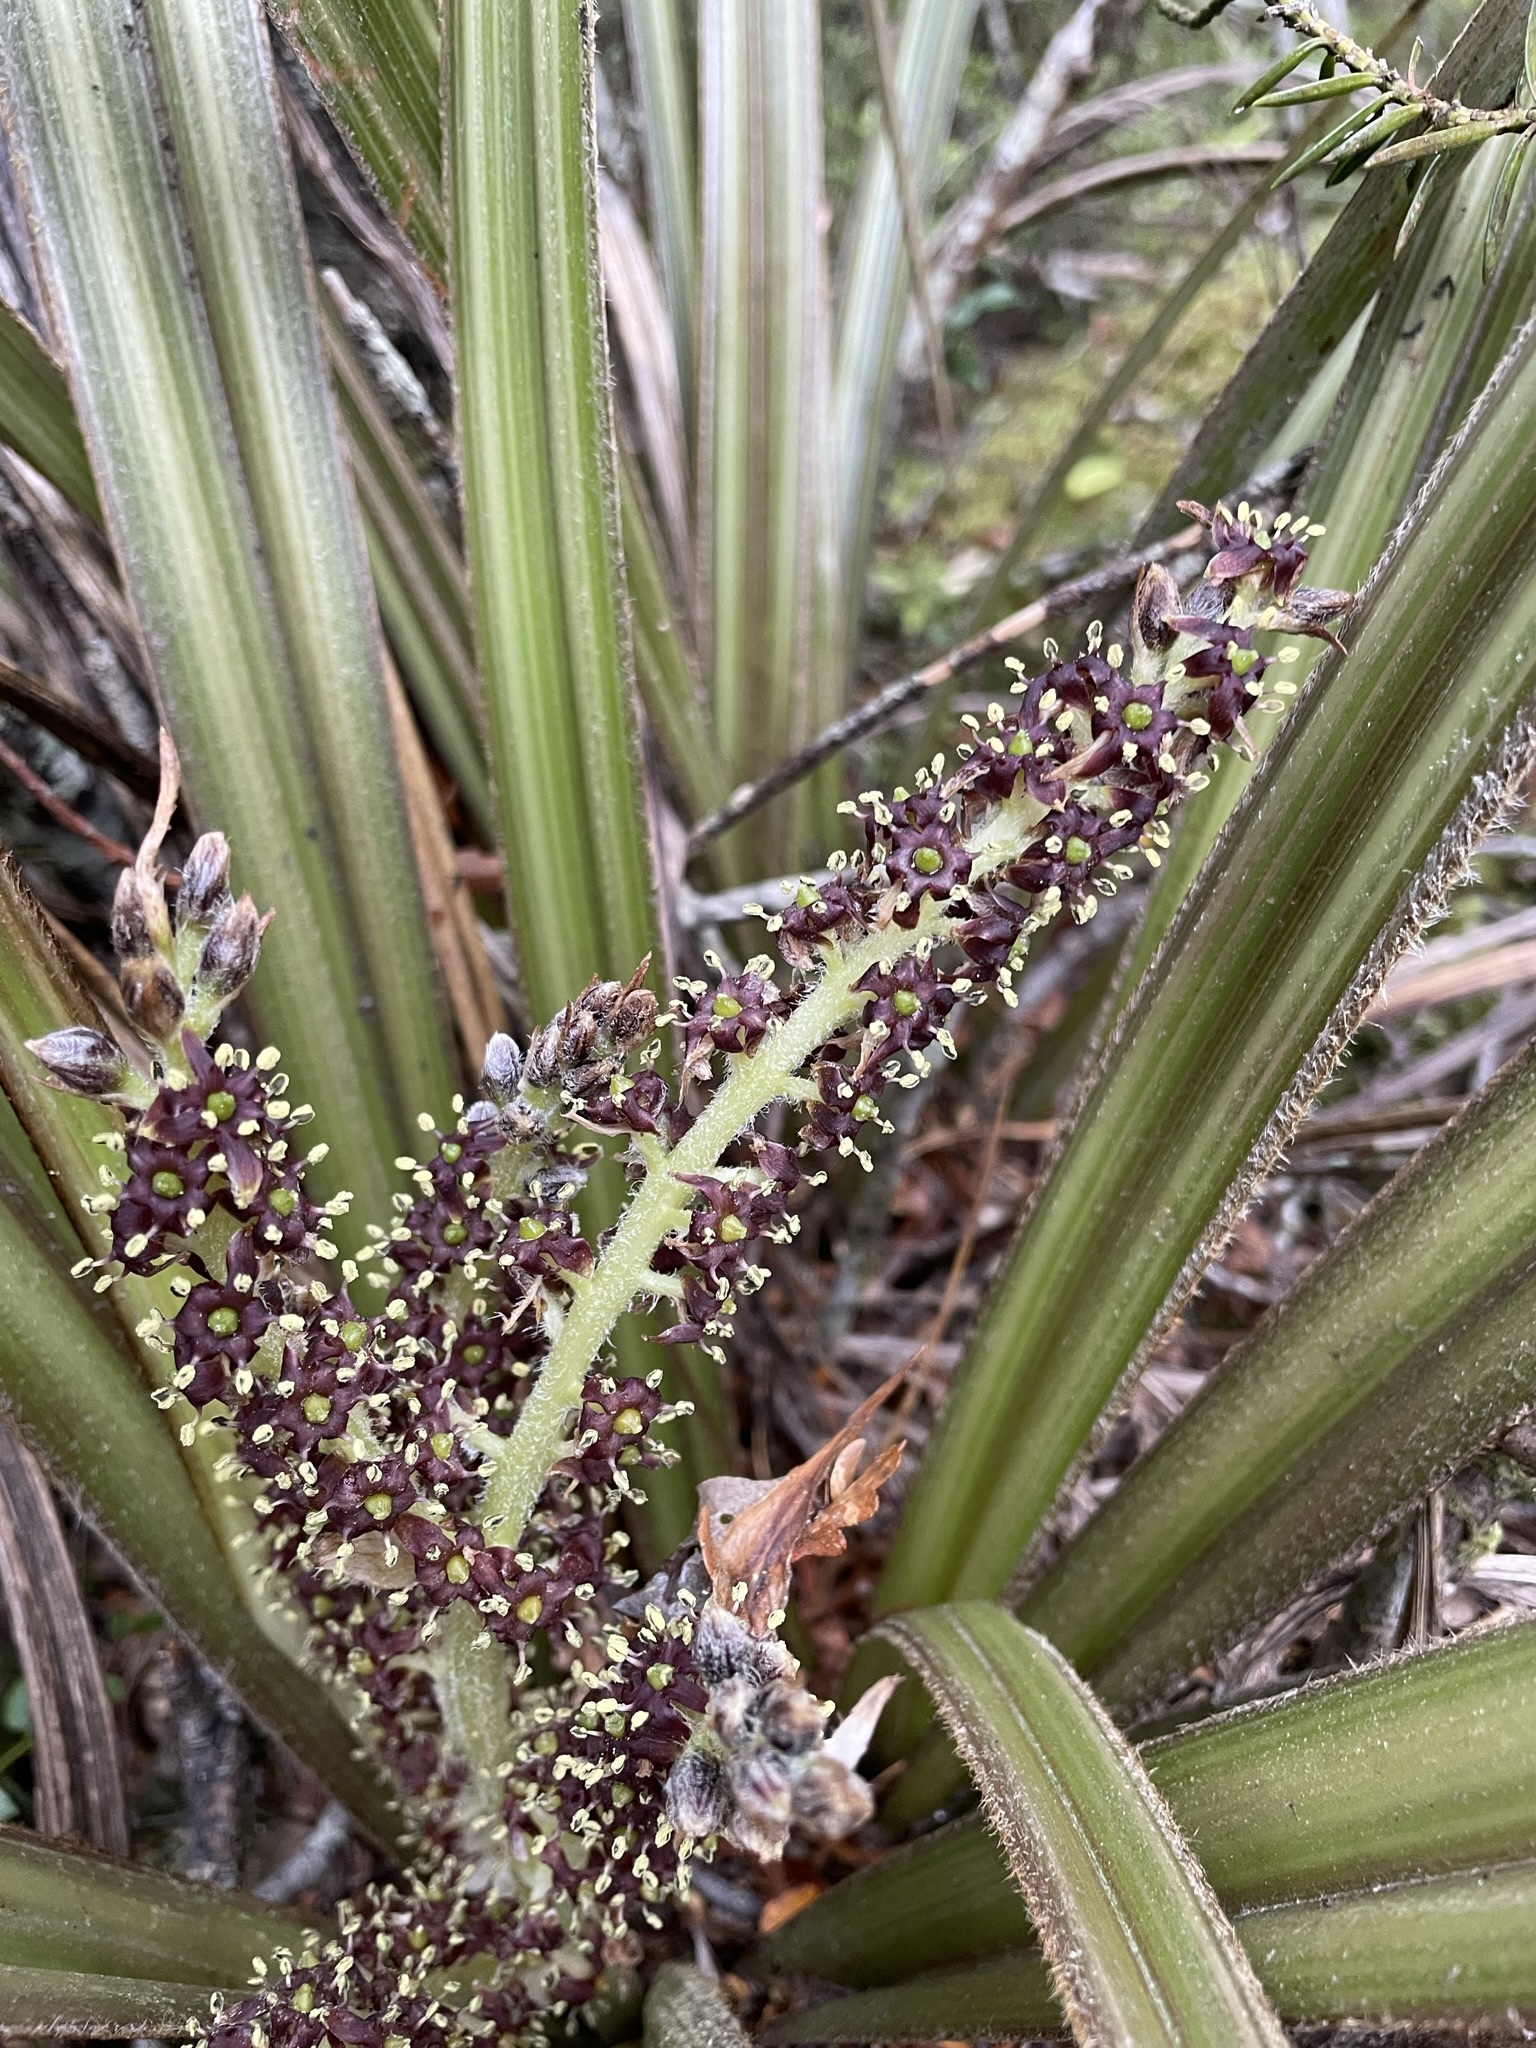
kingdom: Plantae
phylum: Tracheophyta
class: Liliopsida
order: Asparagales
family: Asteliaceae
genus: Astelia
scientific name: Astelia nervosa
